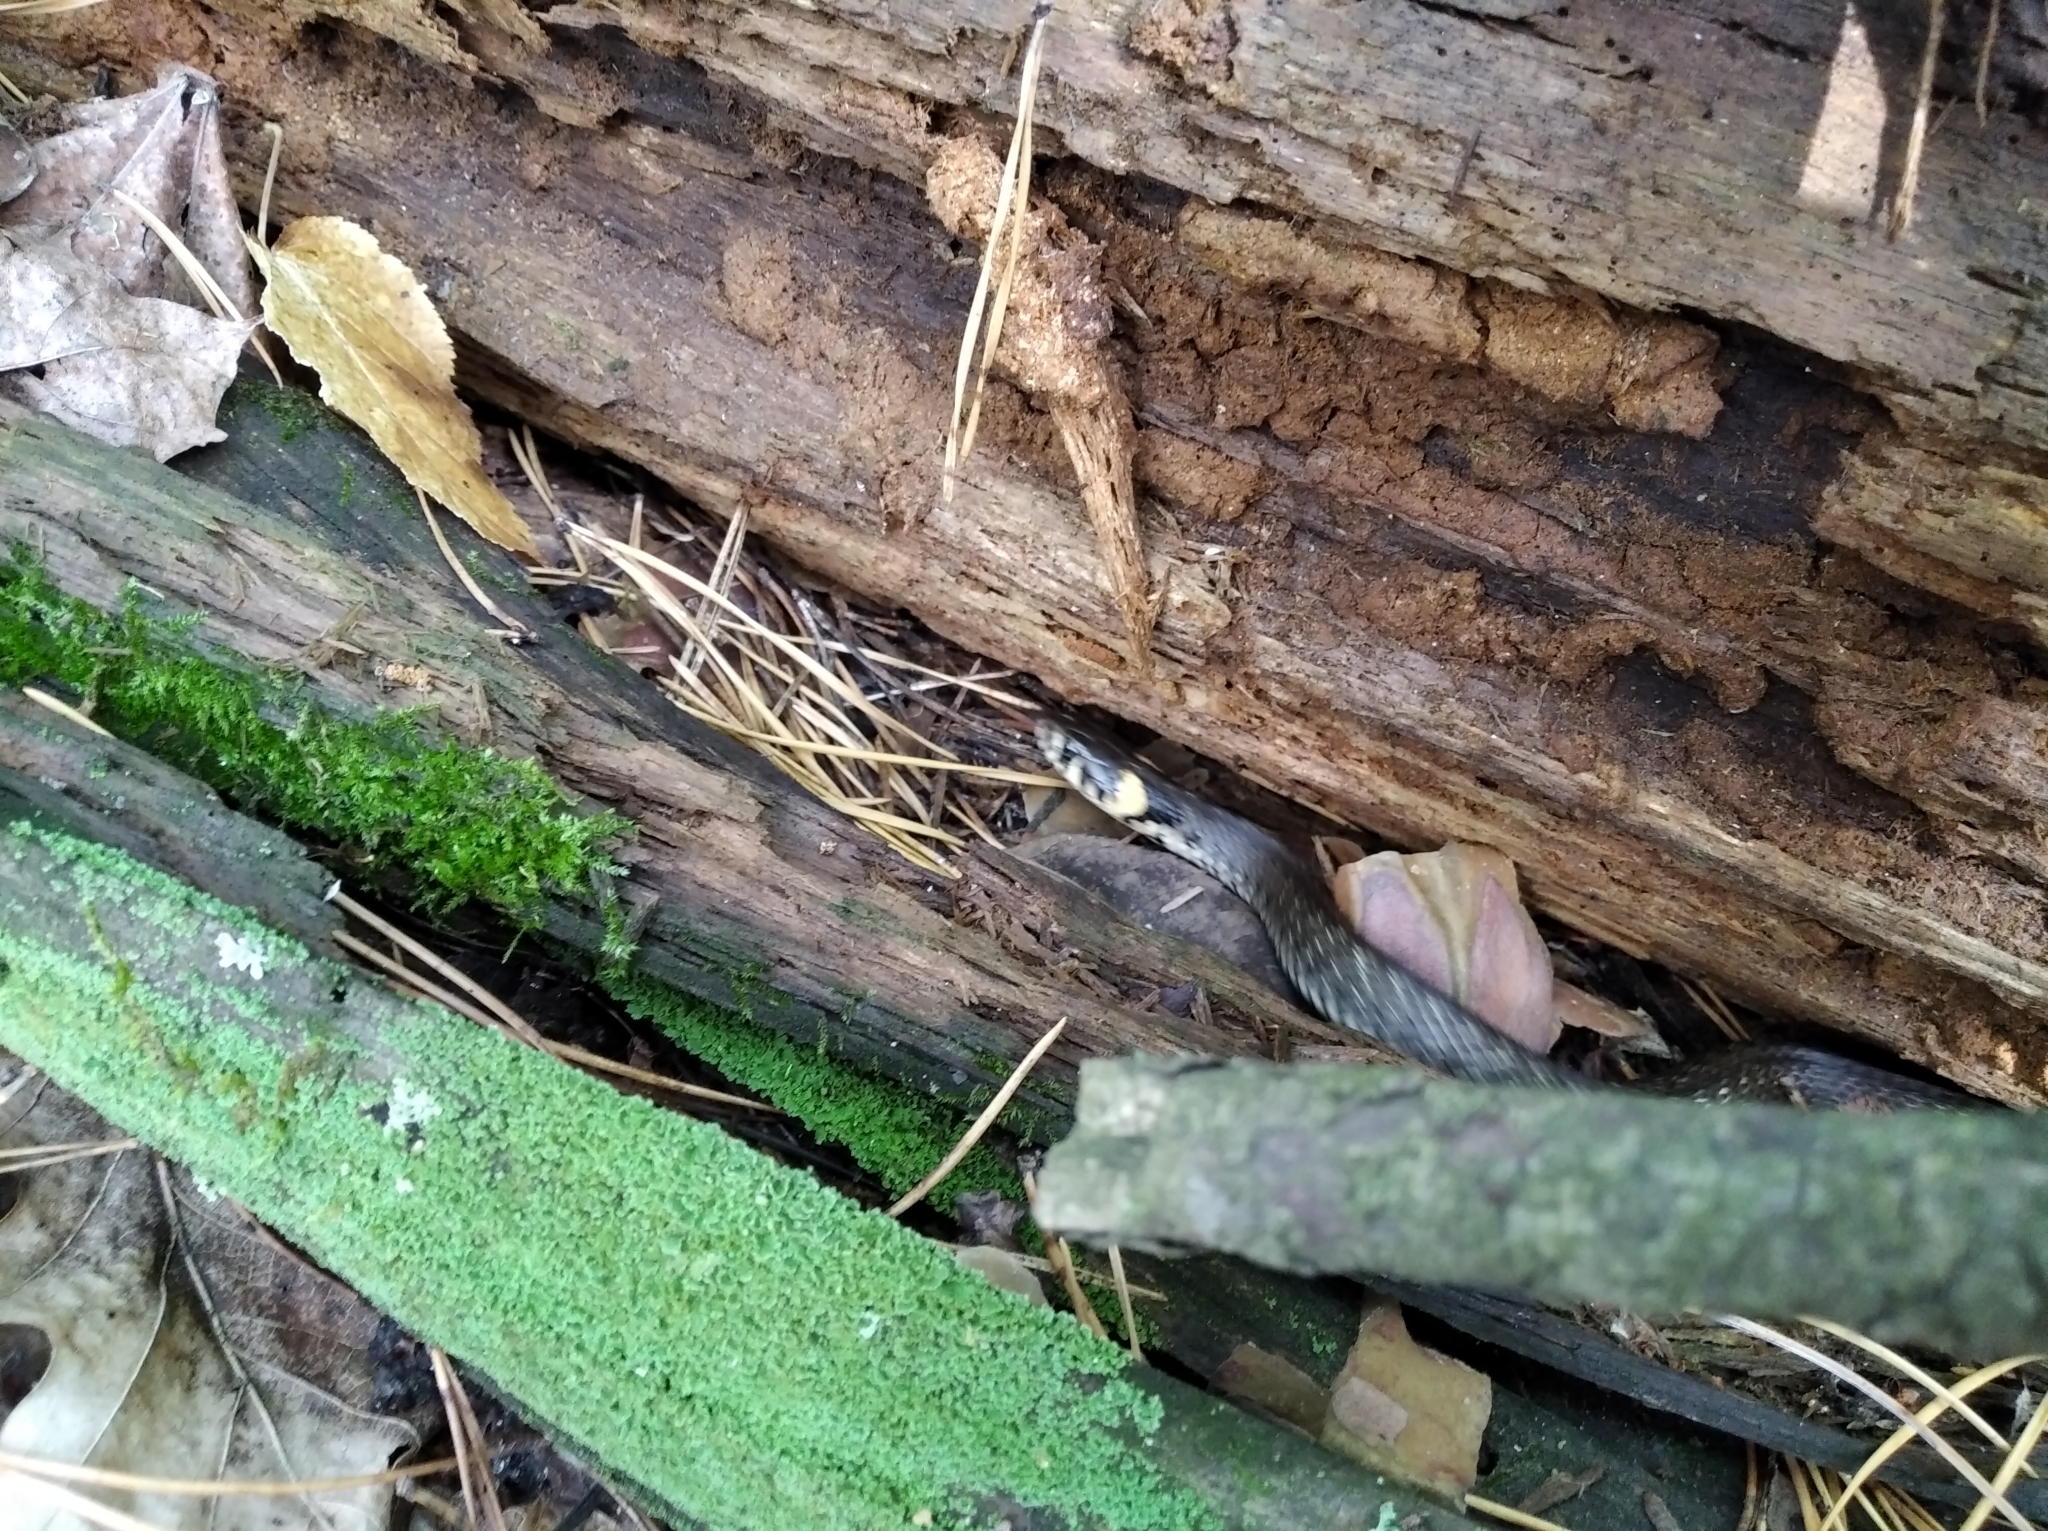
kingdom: Animalia
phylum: Chordata
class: Squamata
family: Colubridae
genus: Natrix
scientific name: Natrix natrix
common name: Grass snake
